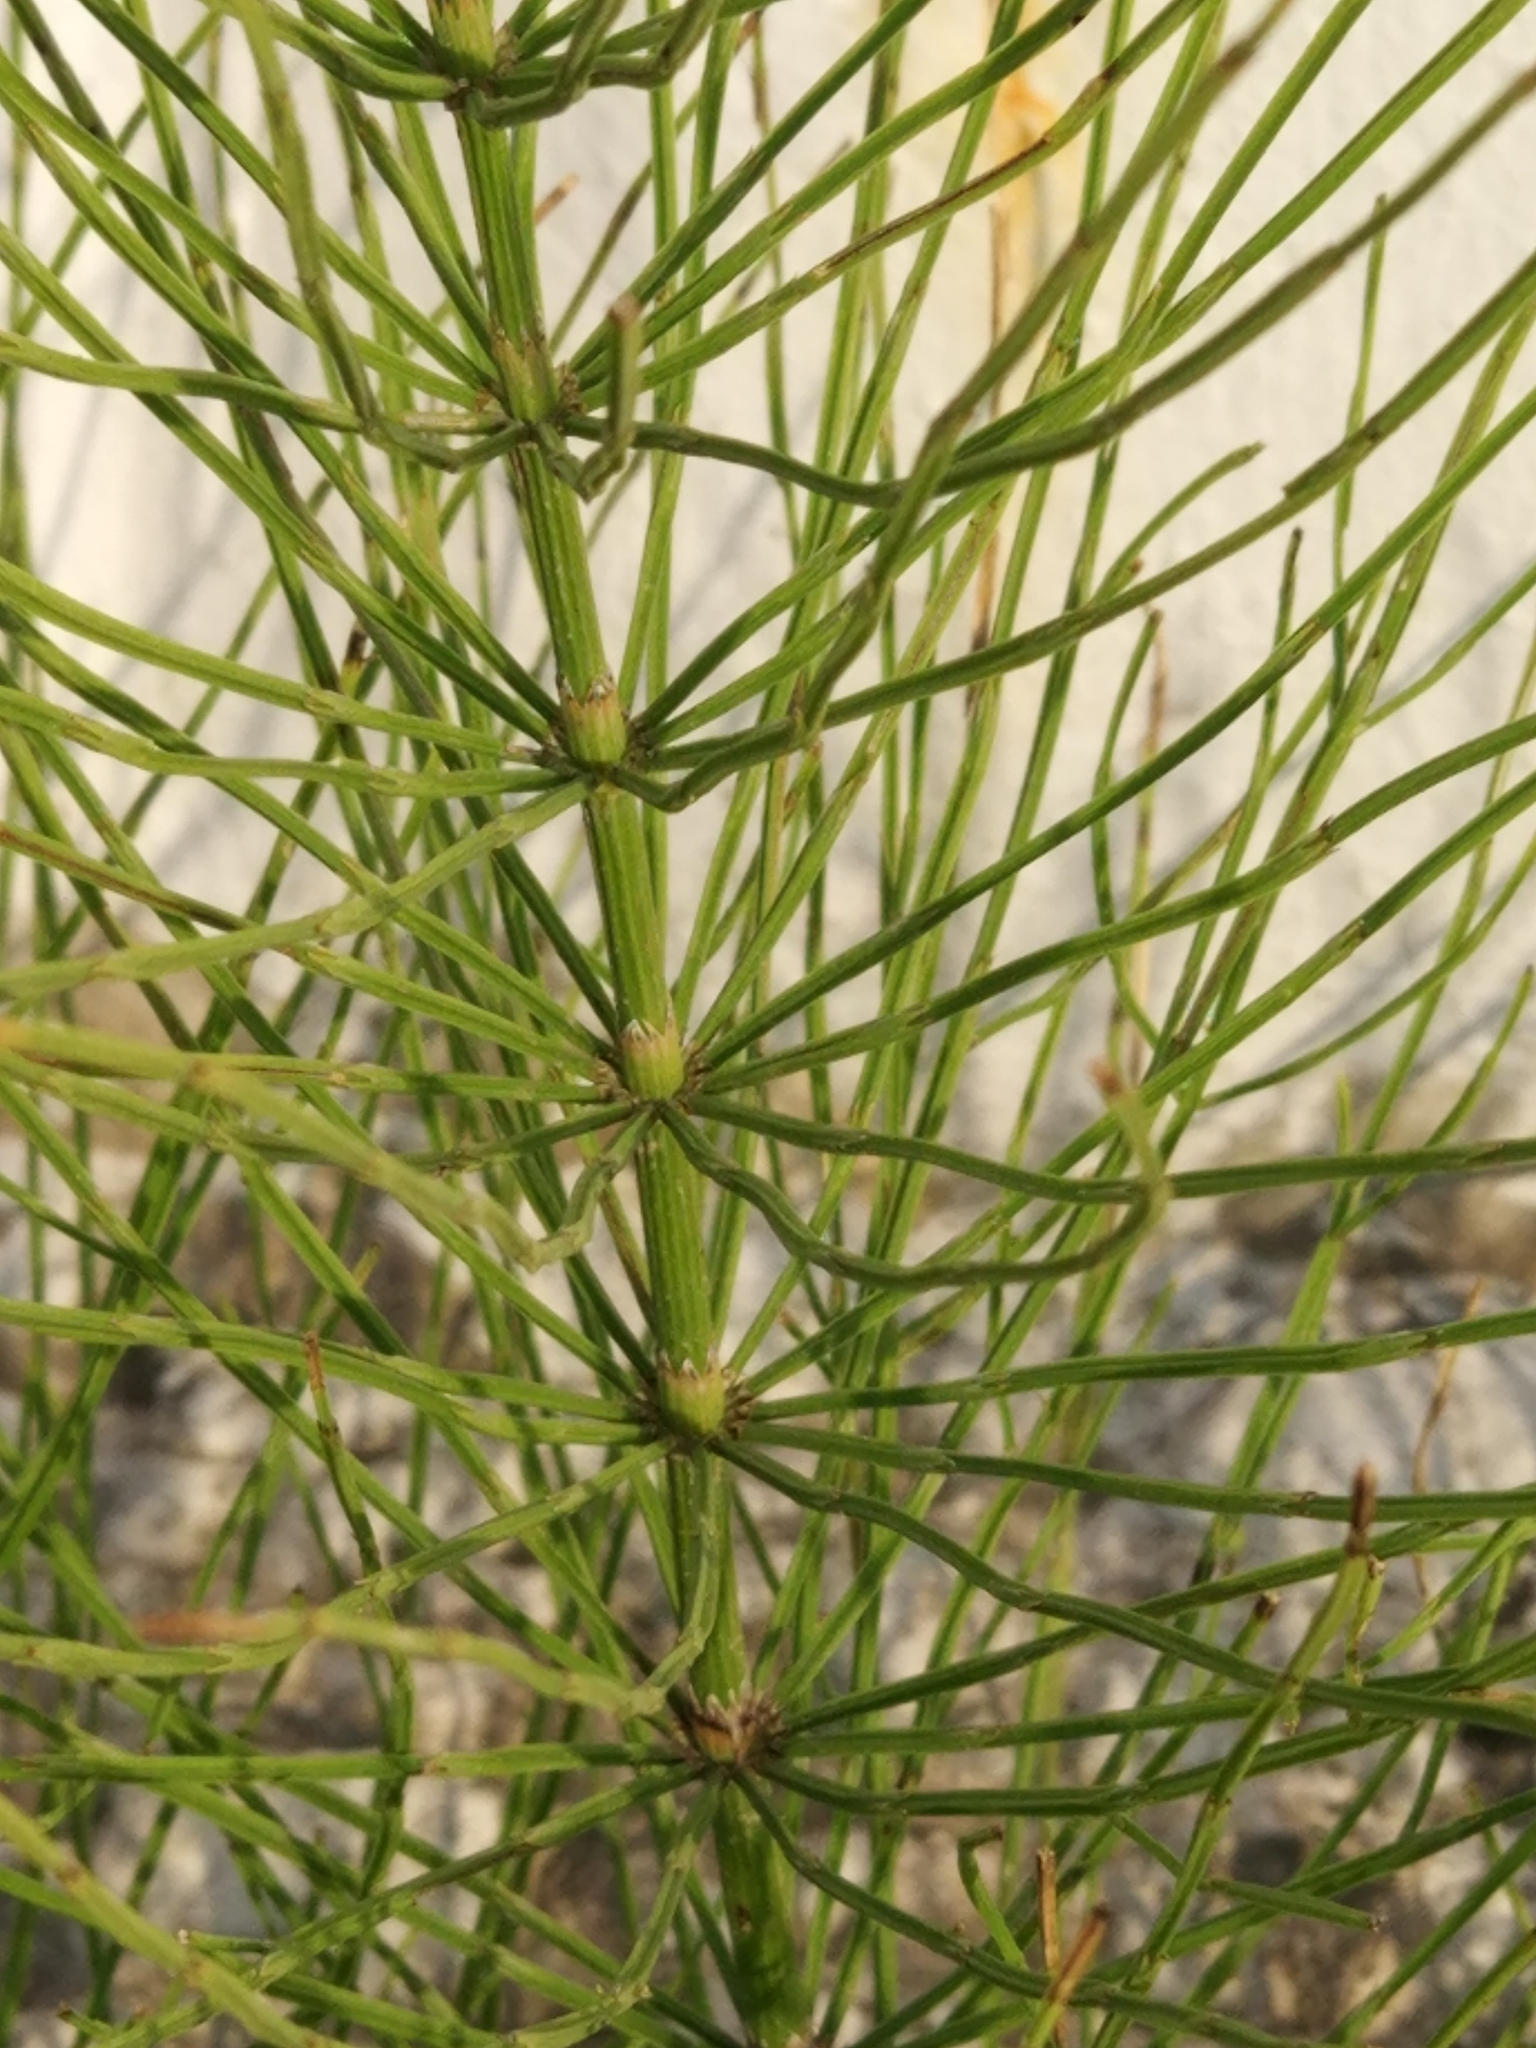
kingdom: Plantae
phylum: Tracheophyta
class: Polypodiopsida
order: Equisetales
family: Equisetaceae
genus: Equisetum
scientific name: Equisetum arvense
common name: Field horsetail
